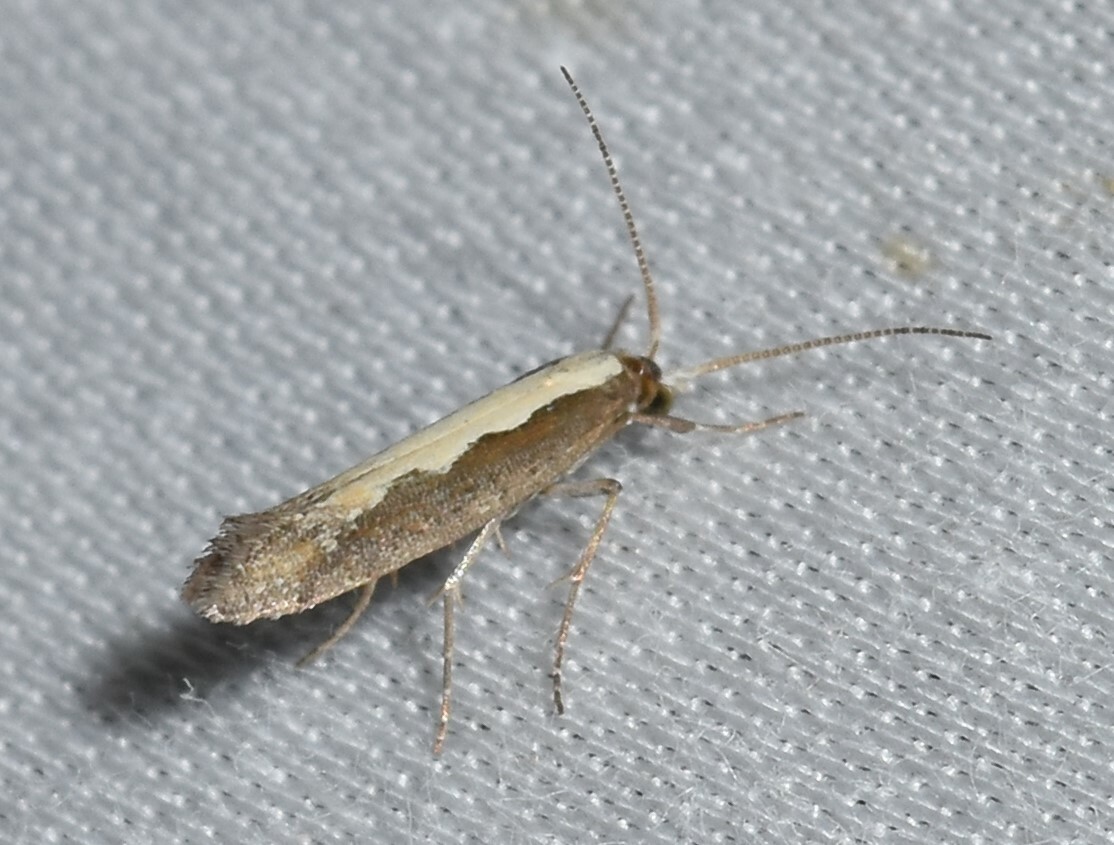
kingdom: Animalia
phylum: Arthropoda
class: Insecta
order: Lepidoptera
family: Plutellidae
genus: Plutella
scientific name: Plutella xylostella
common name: Diamond-back moth
